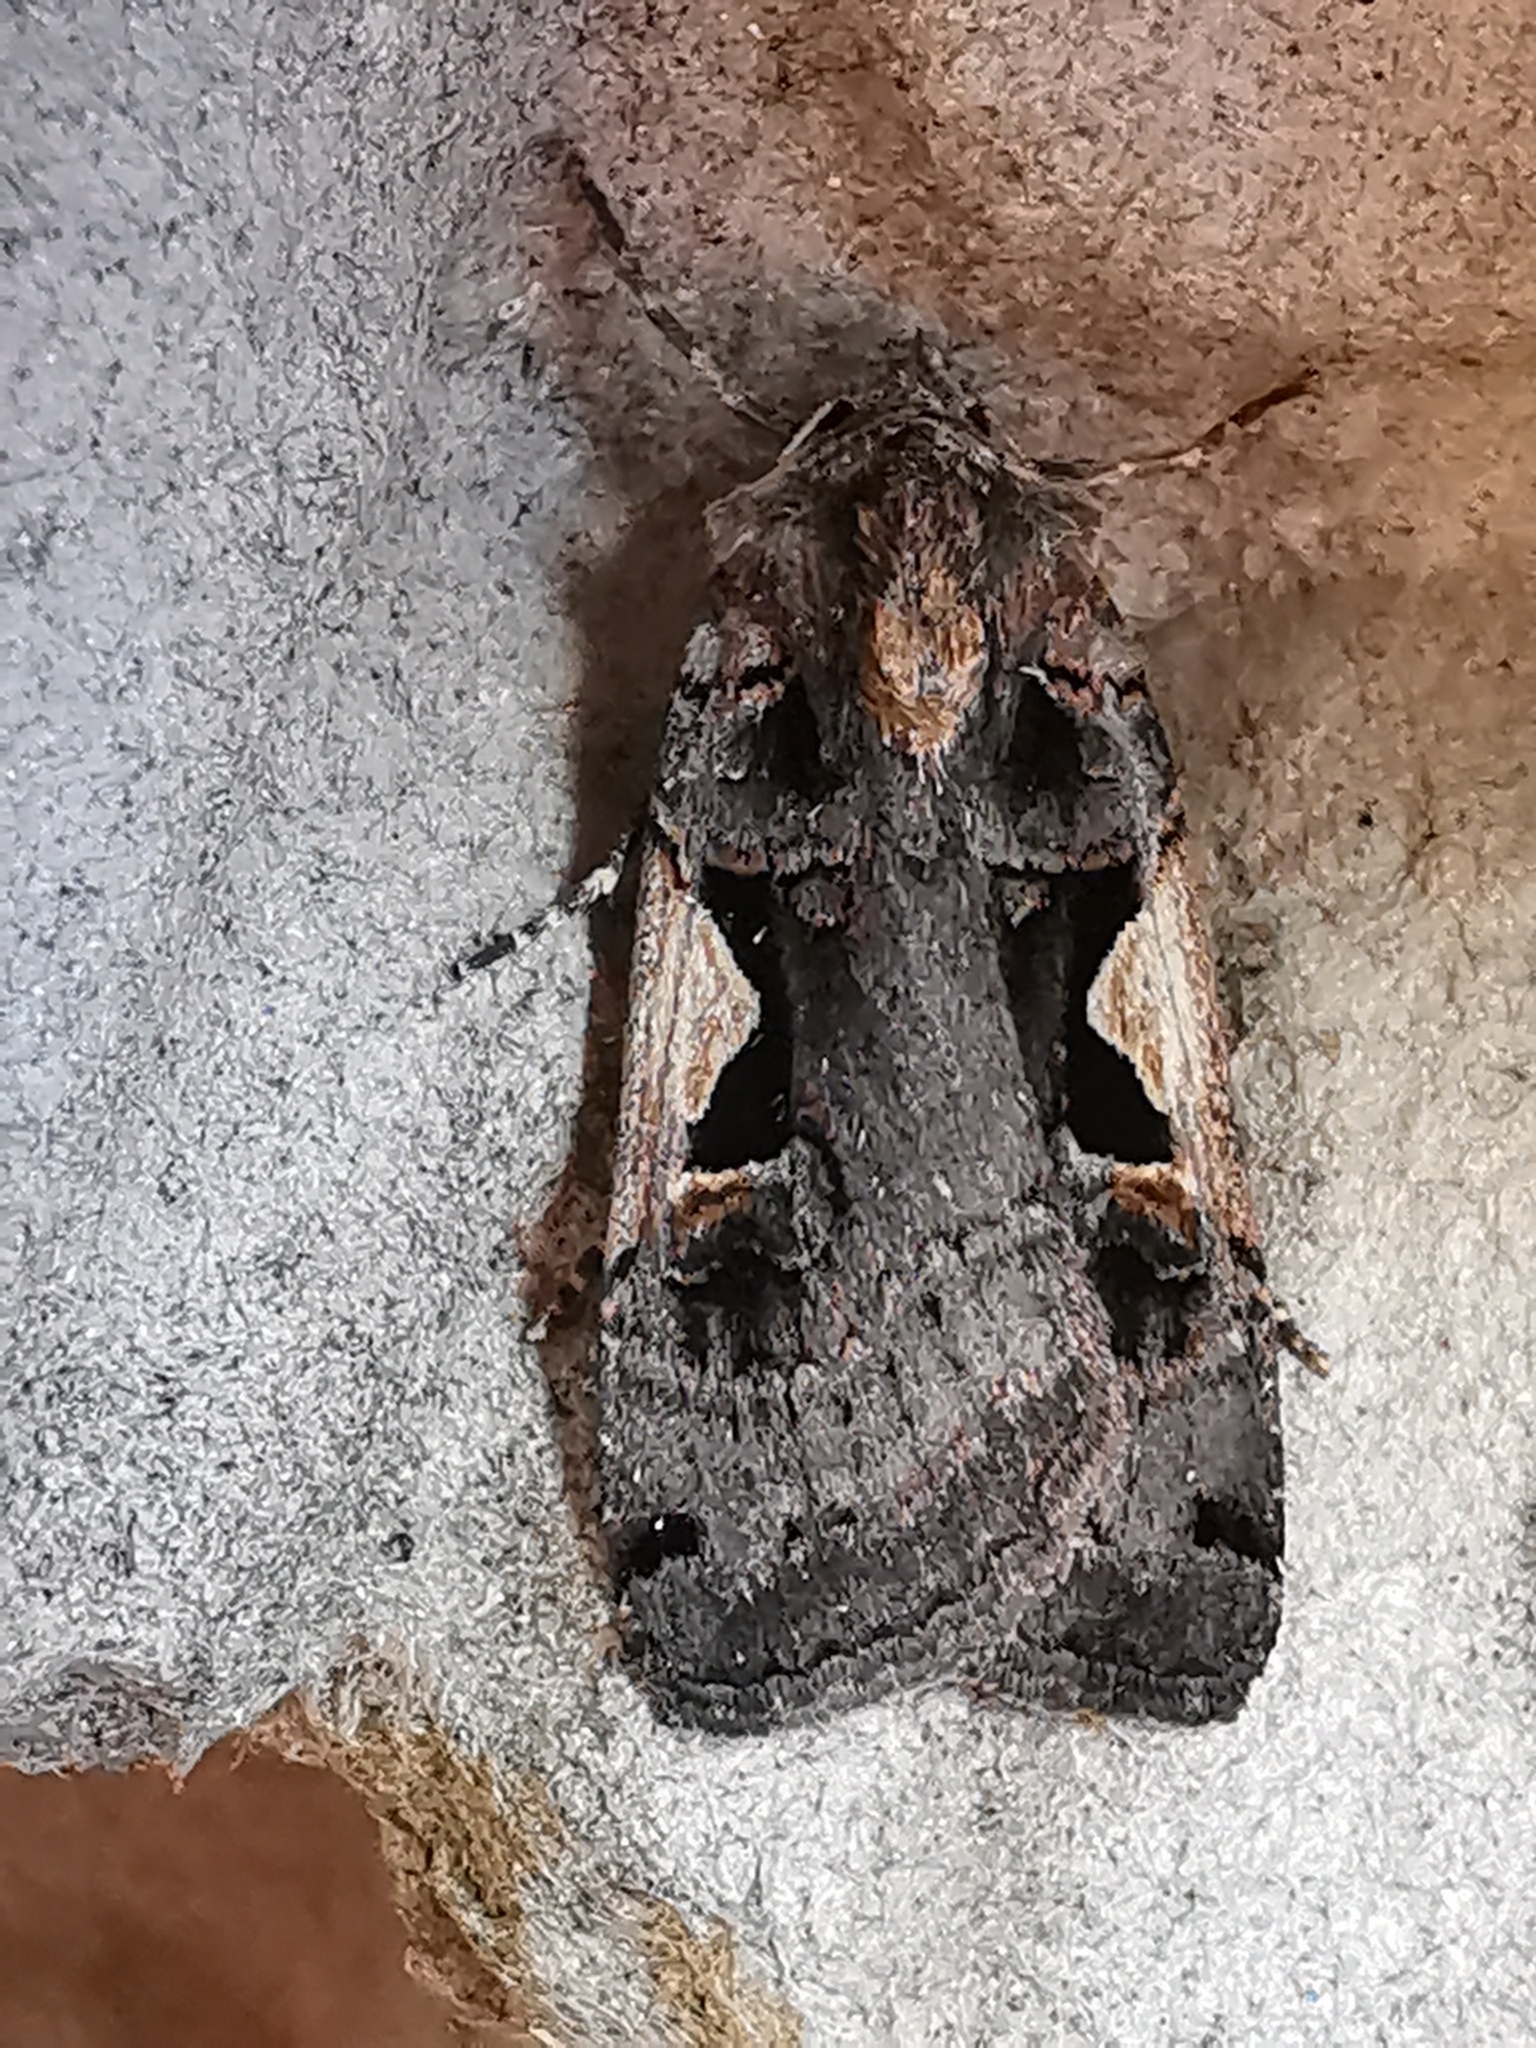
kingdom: Animalia
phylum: Arthropoda
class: Insecta
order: Lepidoptera
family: Noctuidae
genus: Xestia
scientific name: Xestia c-nigrum
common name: Setaceous hebrew character
